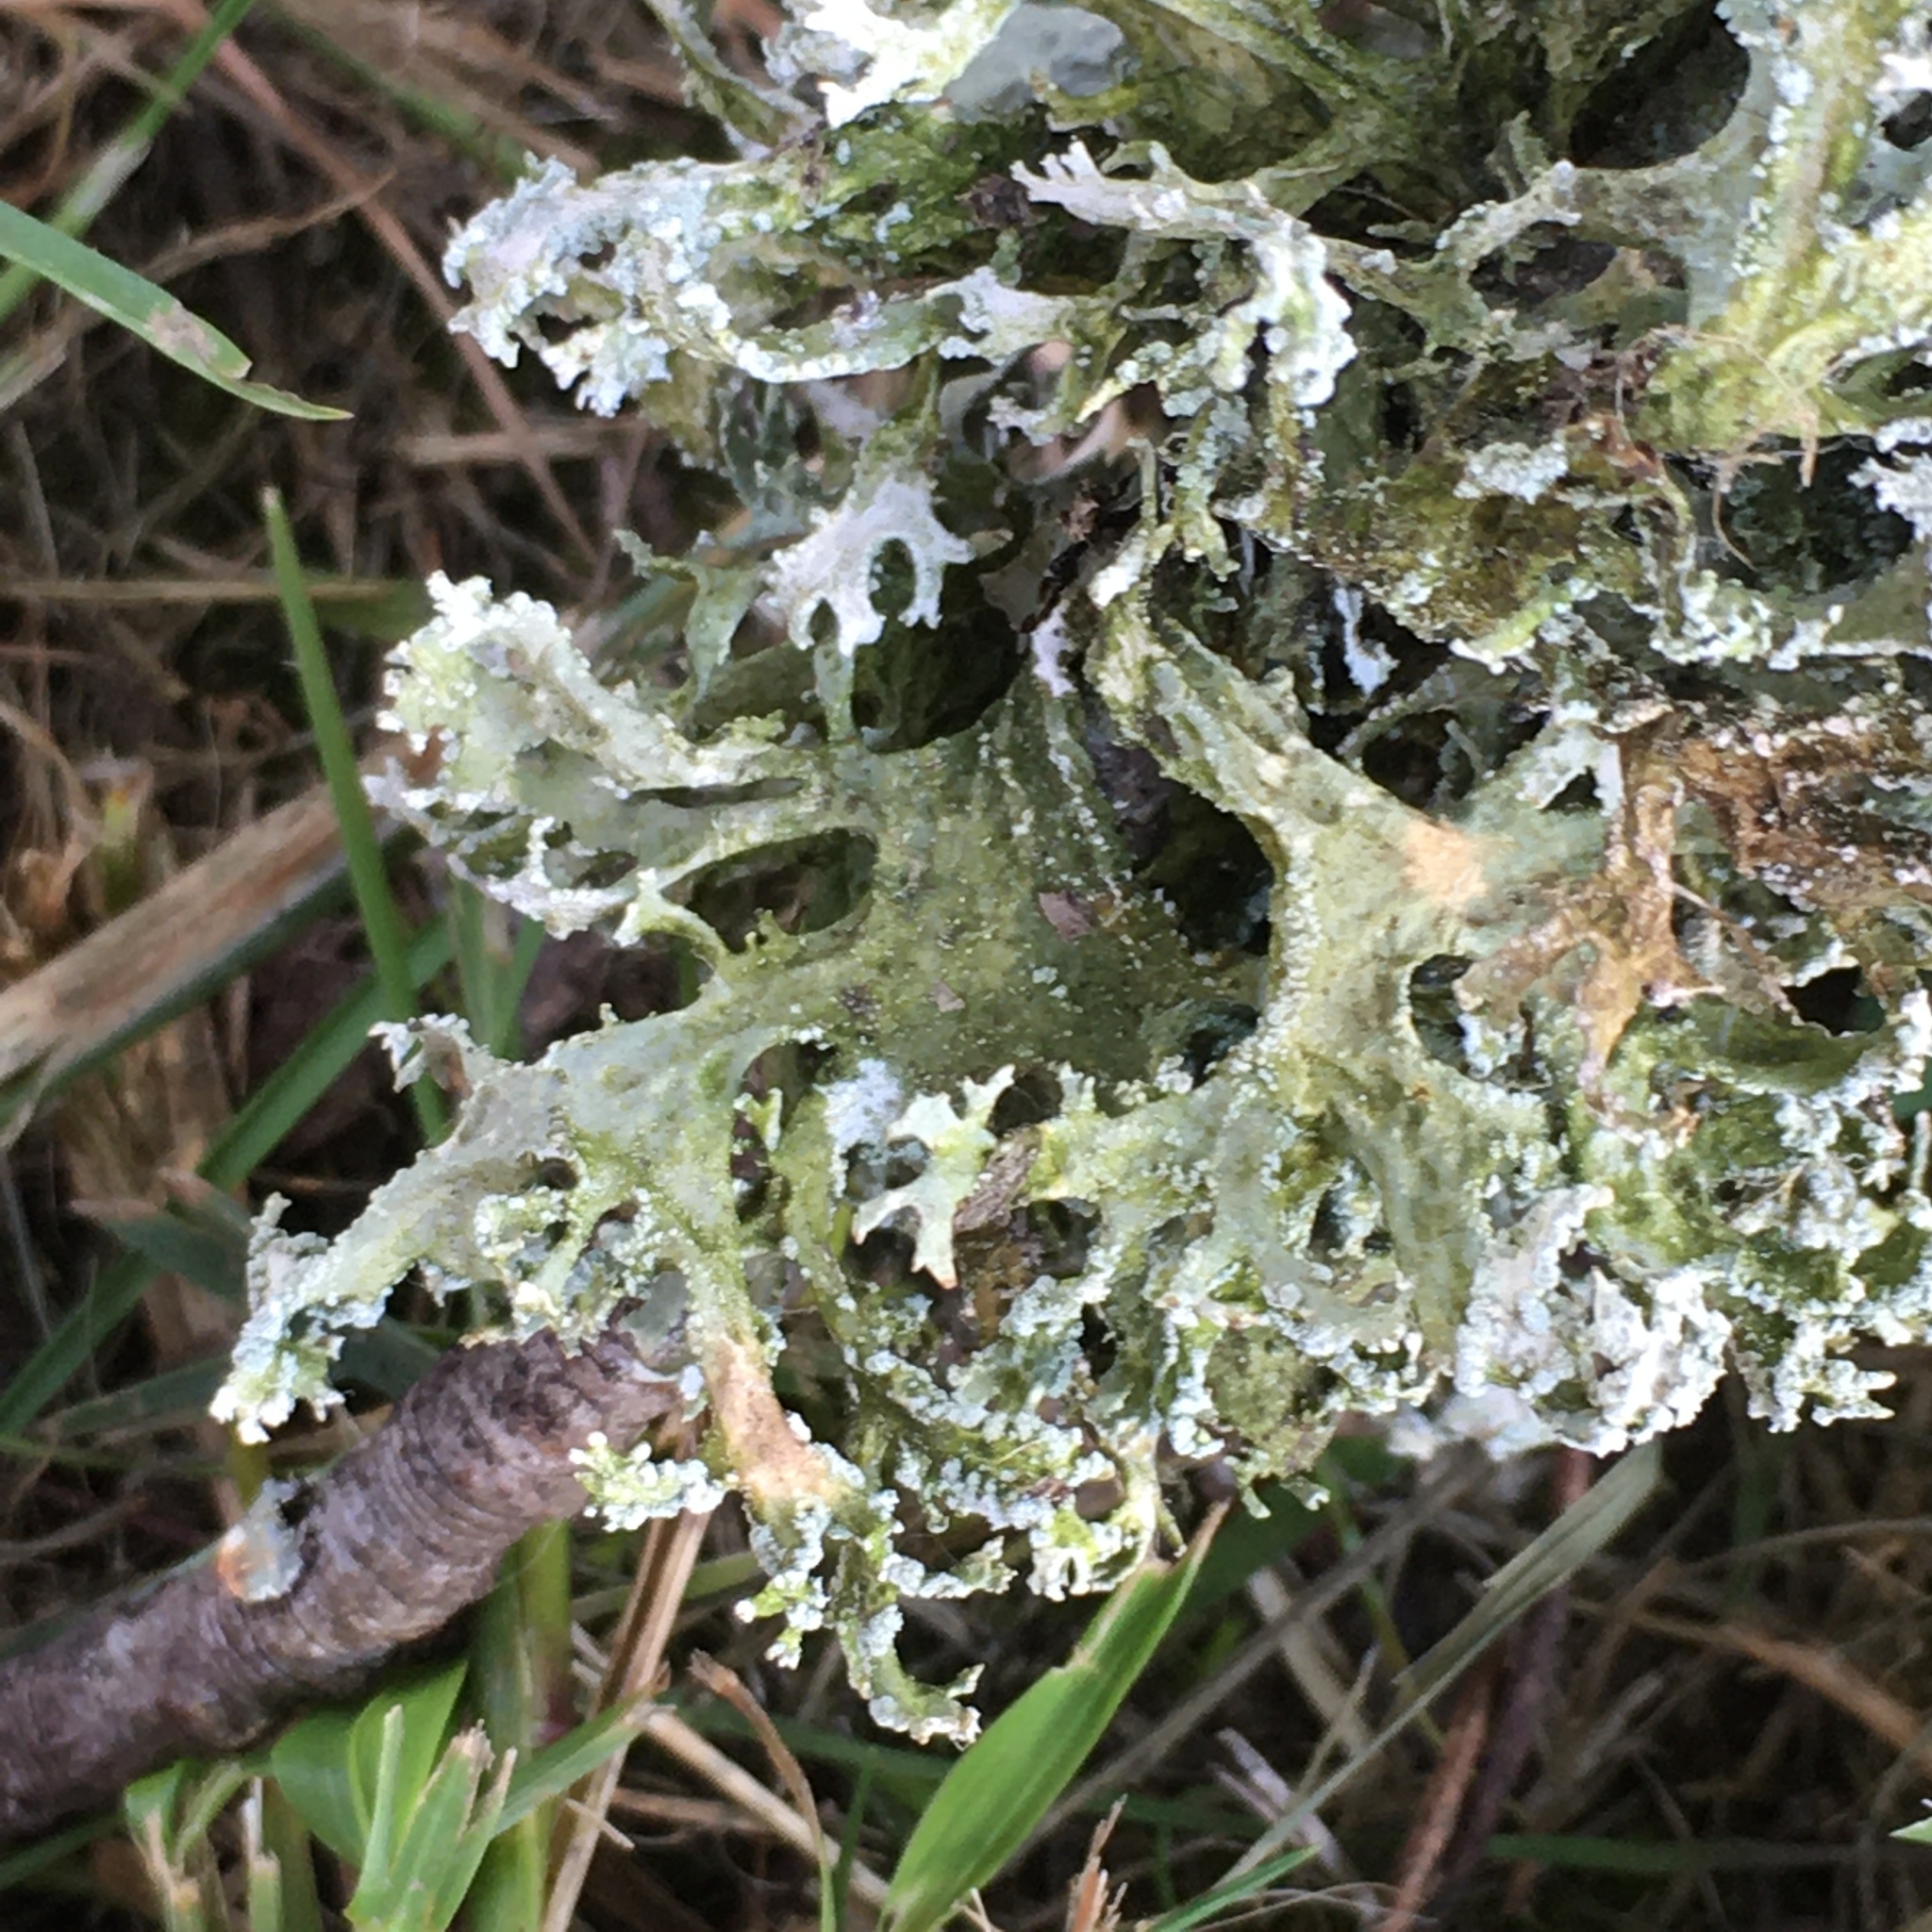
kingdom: Fungi
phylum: Ascomycota
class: Lecanoromycetes
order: Lecanorales
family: Parmeliaceae
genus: Evernia
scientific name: Evernia prunastri
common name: Oak moss
